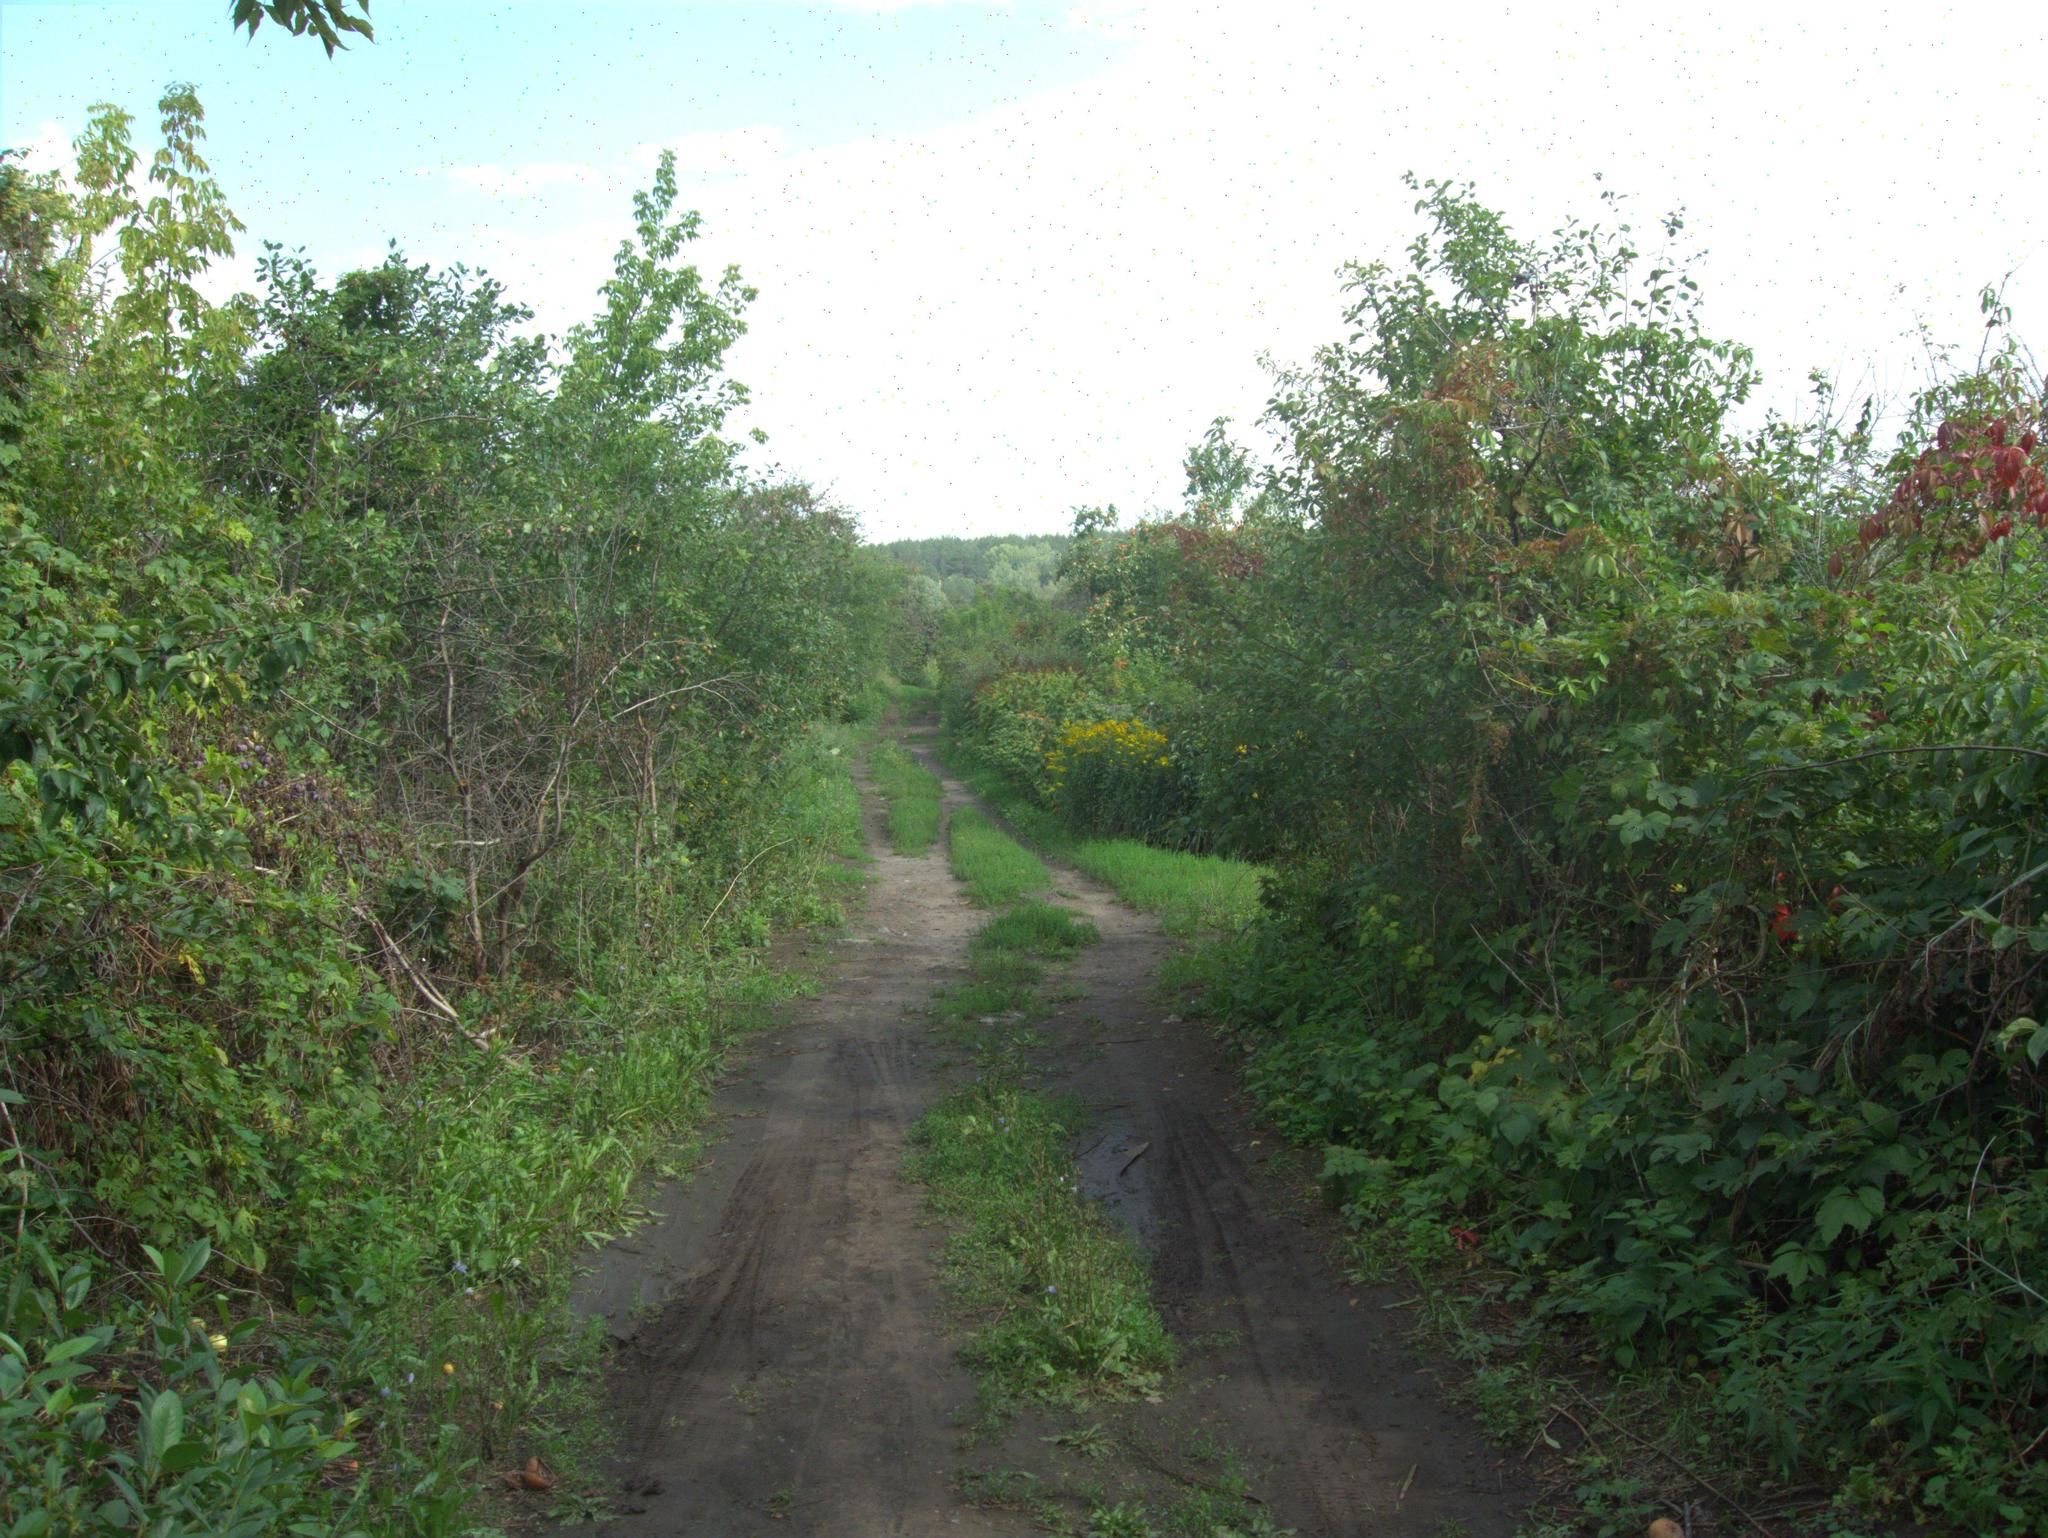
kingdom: Plantae
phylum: Tracheophyta
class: Magnoliopsida
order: Sapindales
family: Sapindaceae
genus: Acer
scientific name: Acer negundo
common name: Ashleaf maple
